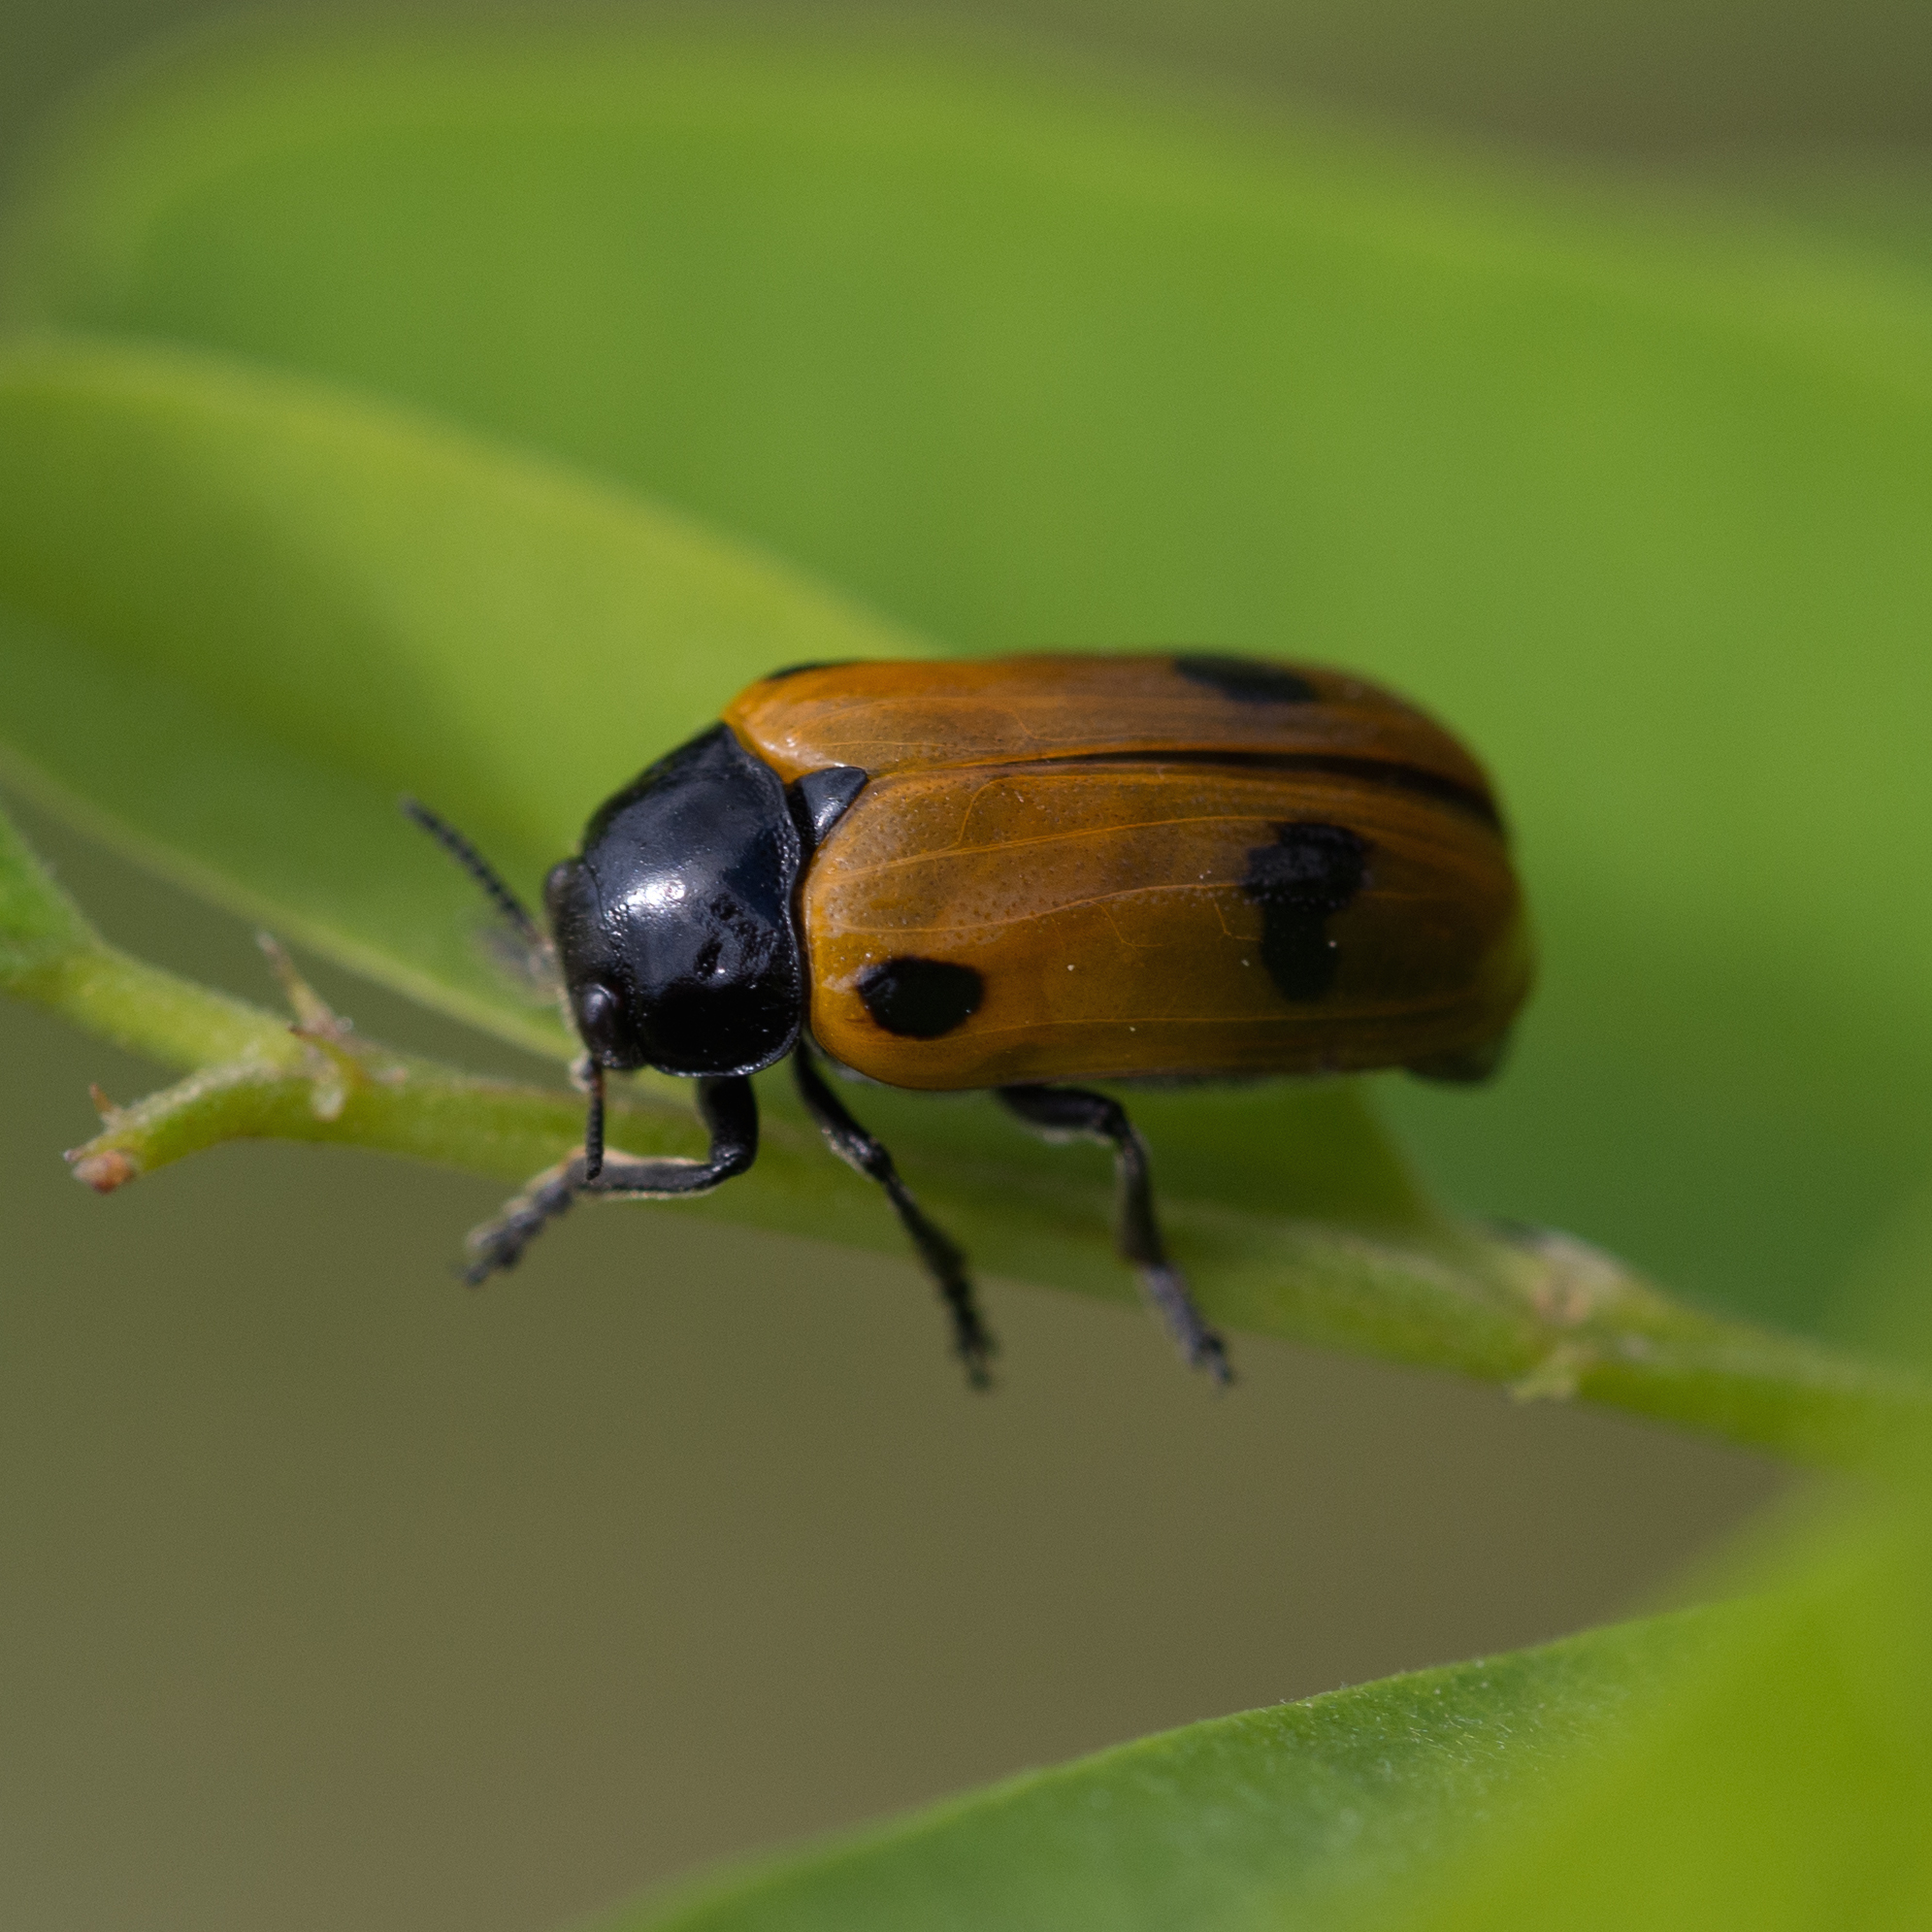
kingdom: Animalia
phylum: Arthropoda
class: Insecta
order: Coleoptera
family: Chrysomelidae
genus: Clytra
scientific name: Clytra quadripunctata
